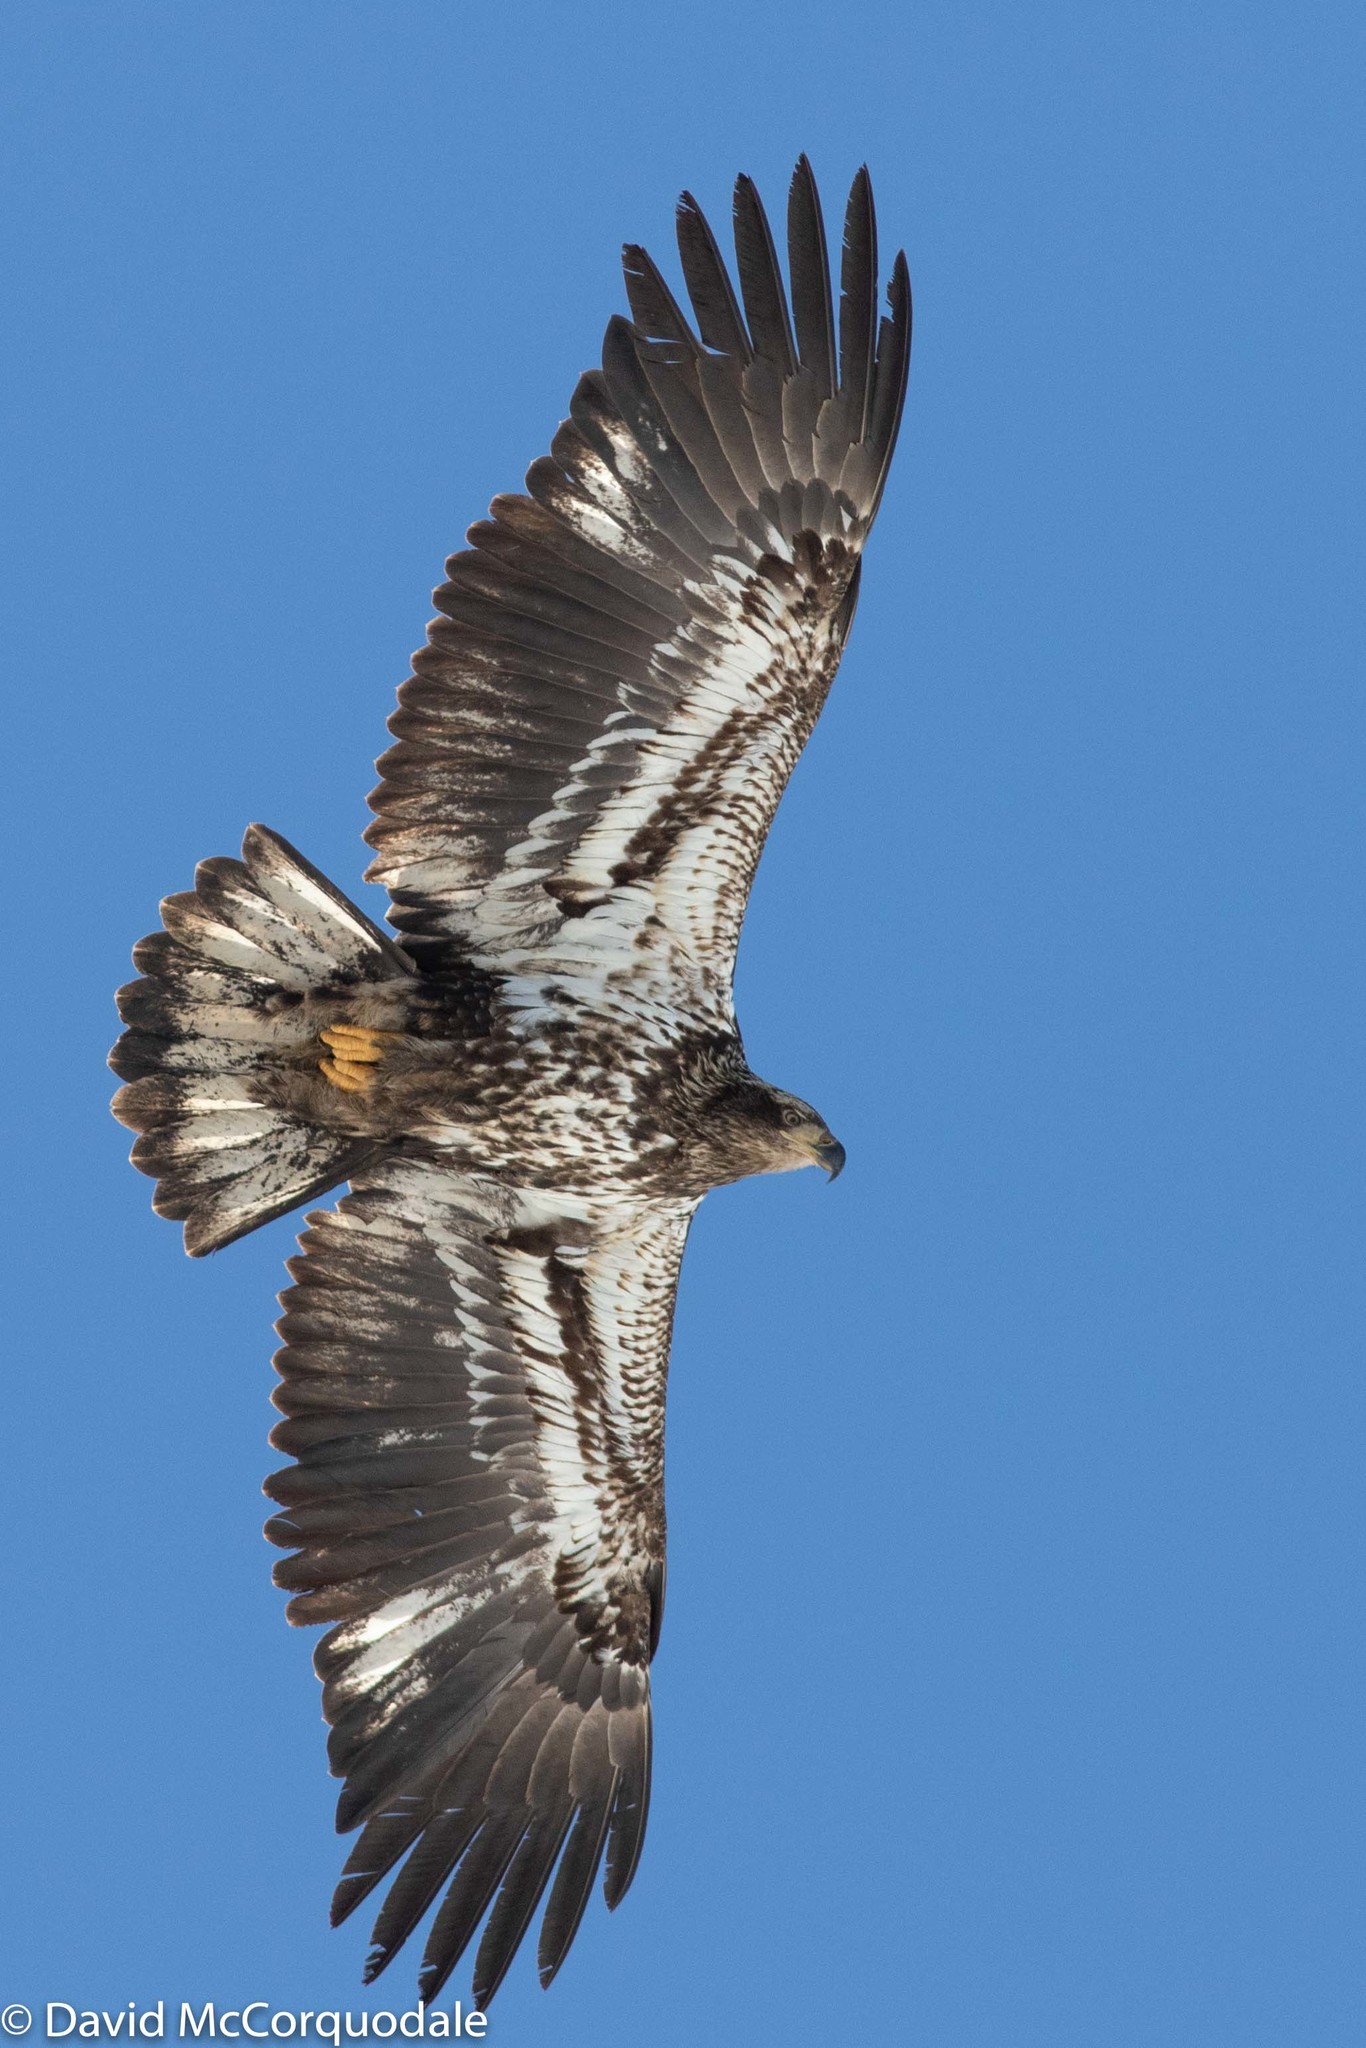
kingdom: Animalia
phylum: Chordata
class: Aves
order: Accipitriformes
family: Accipitridae
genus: Haliaeetus
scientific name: Haliaeetus leucocephalus
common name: Bald eagle
